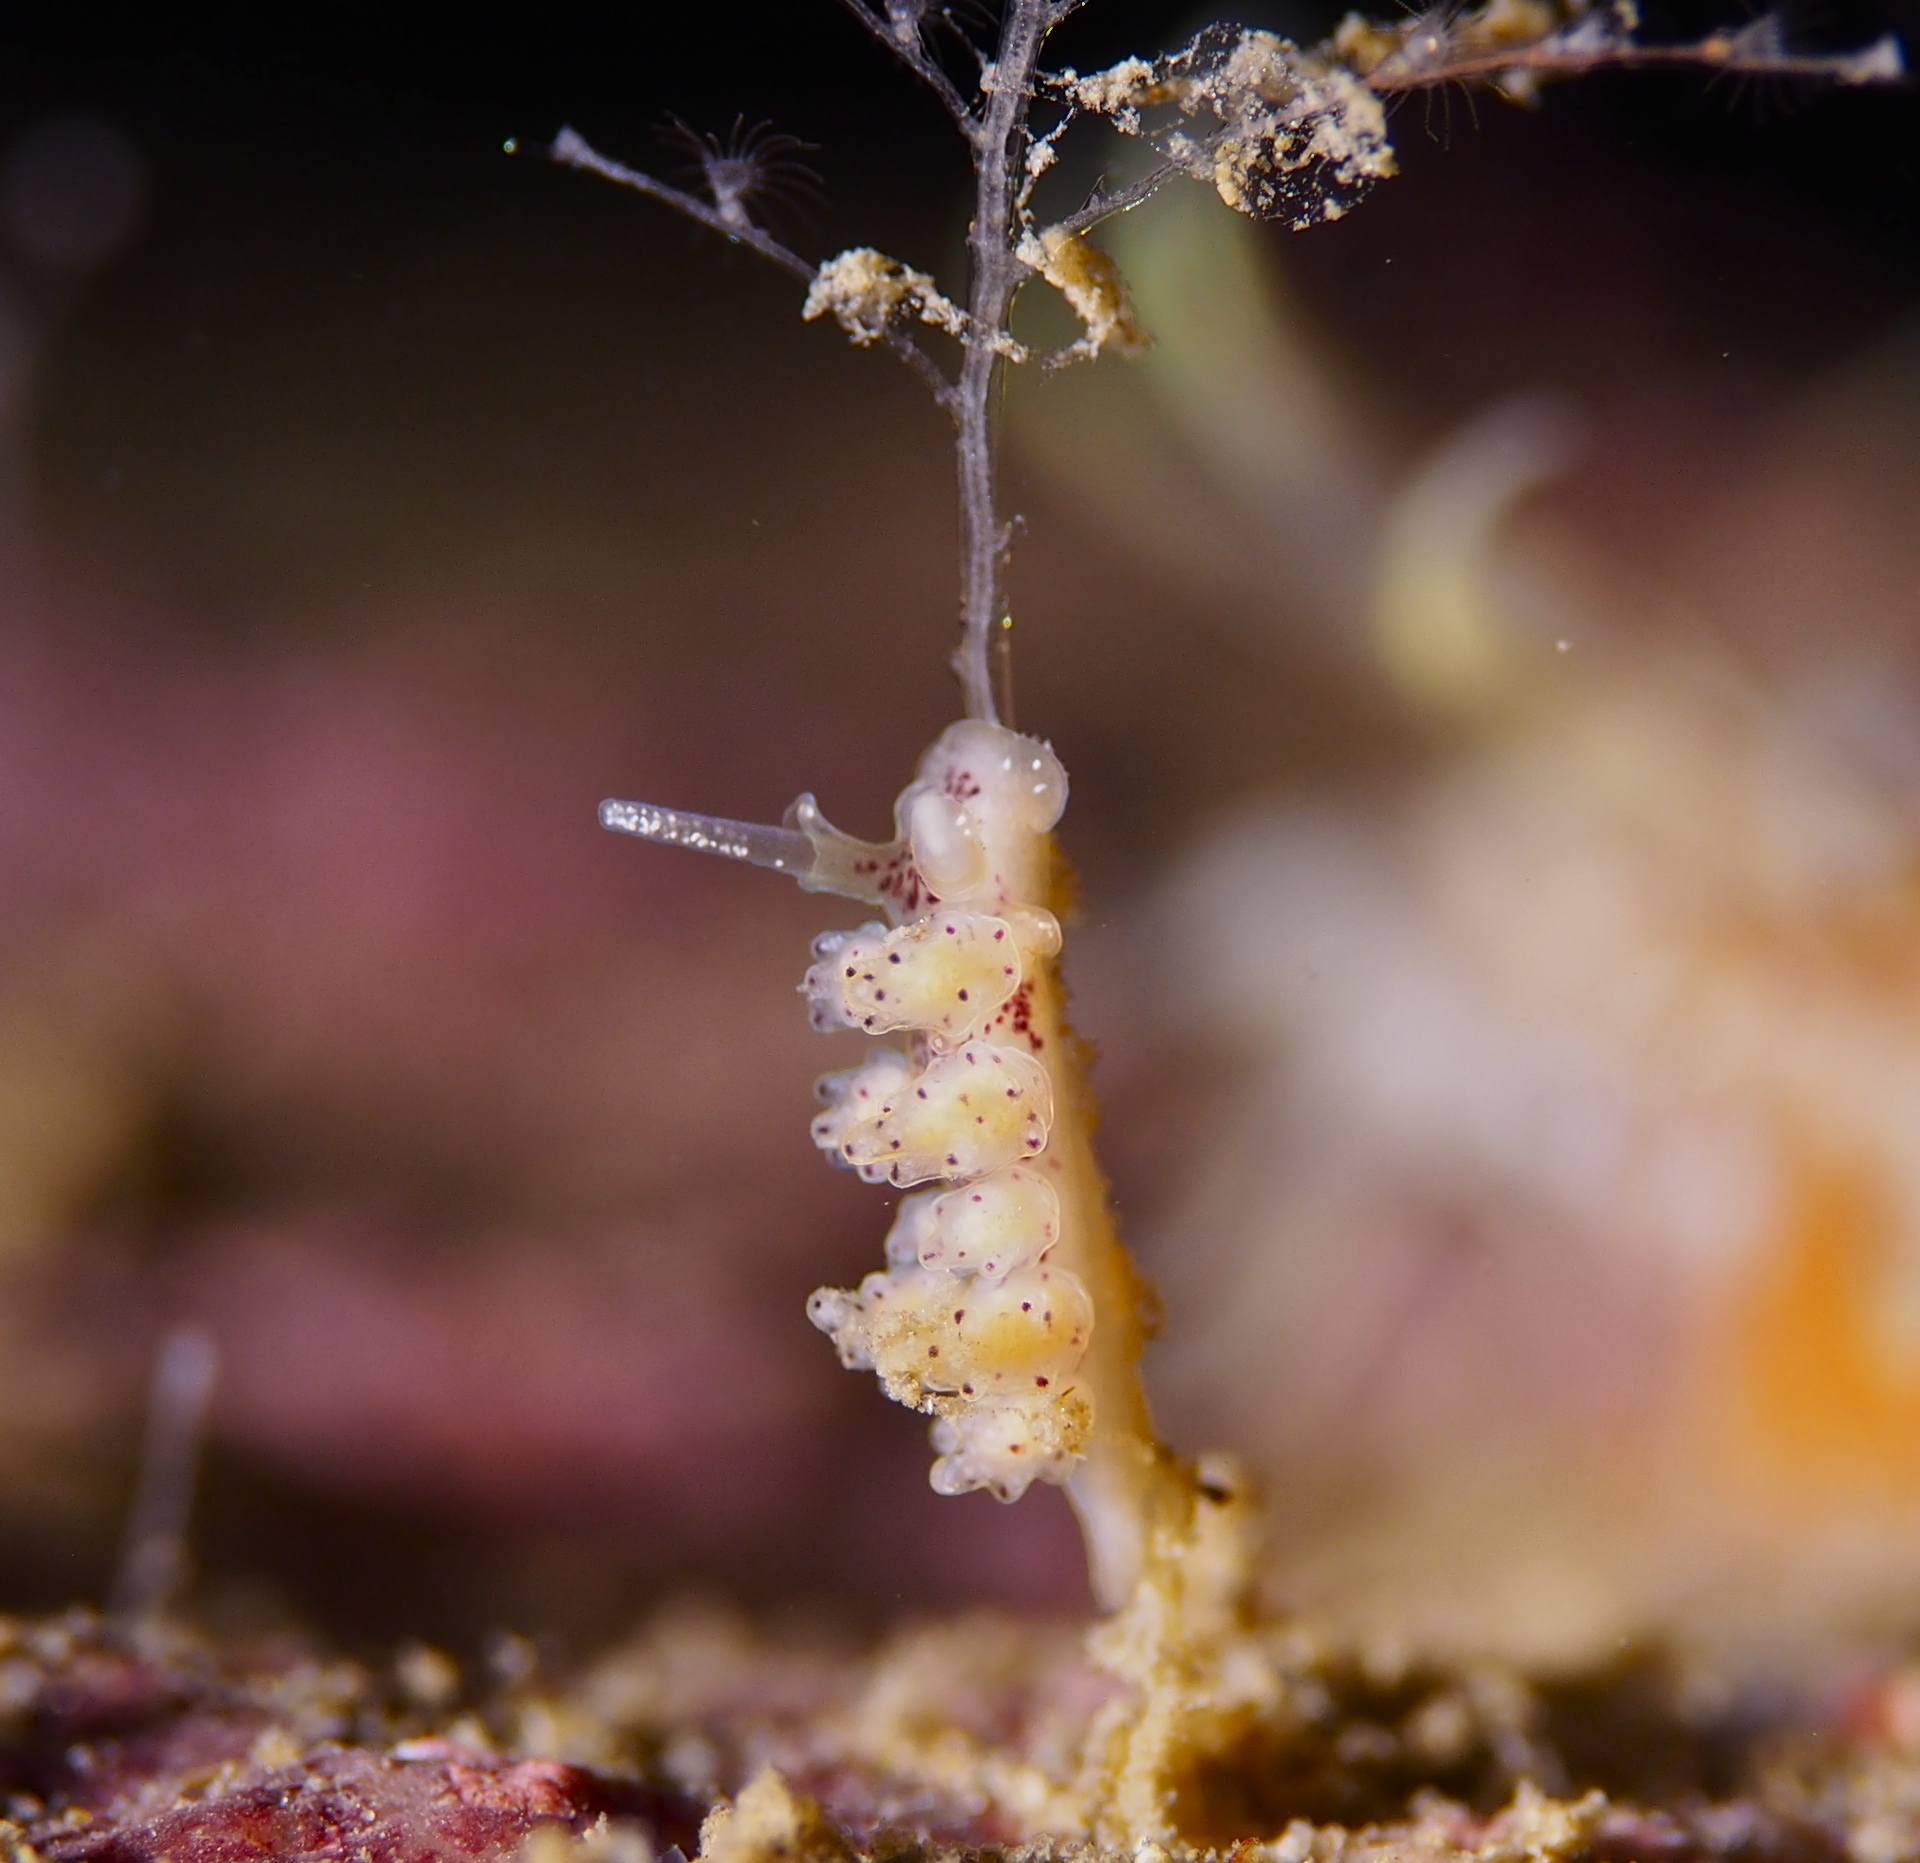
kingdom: Animalia
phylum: Mollusca
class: Gastropoda
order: Nudibranchia
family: Dotidae
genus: Doto
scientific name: Doto dunnei
